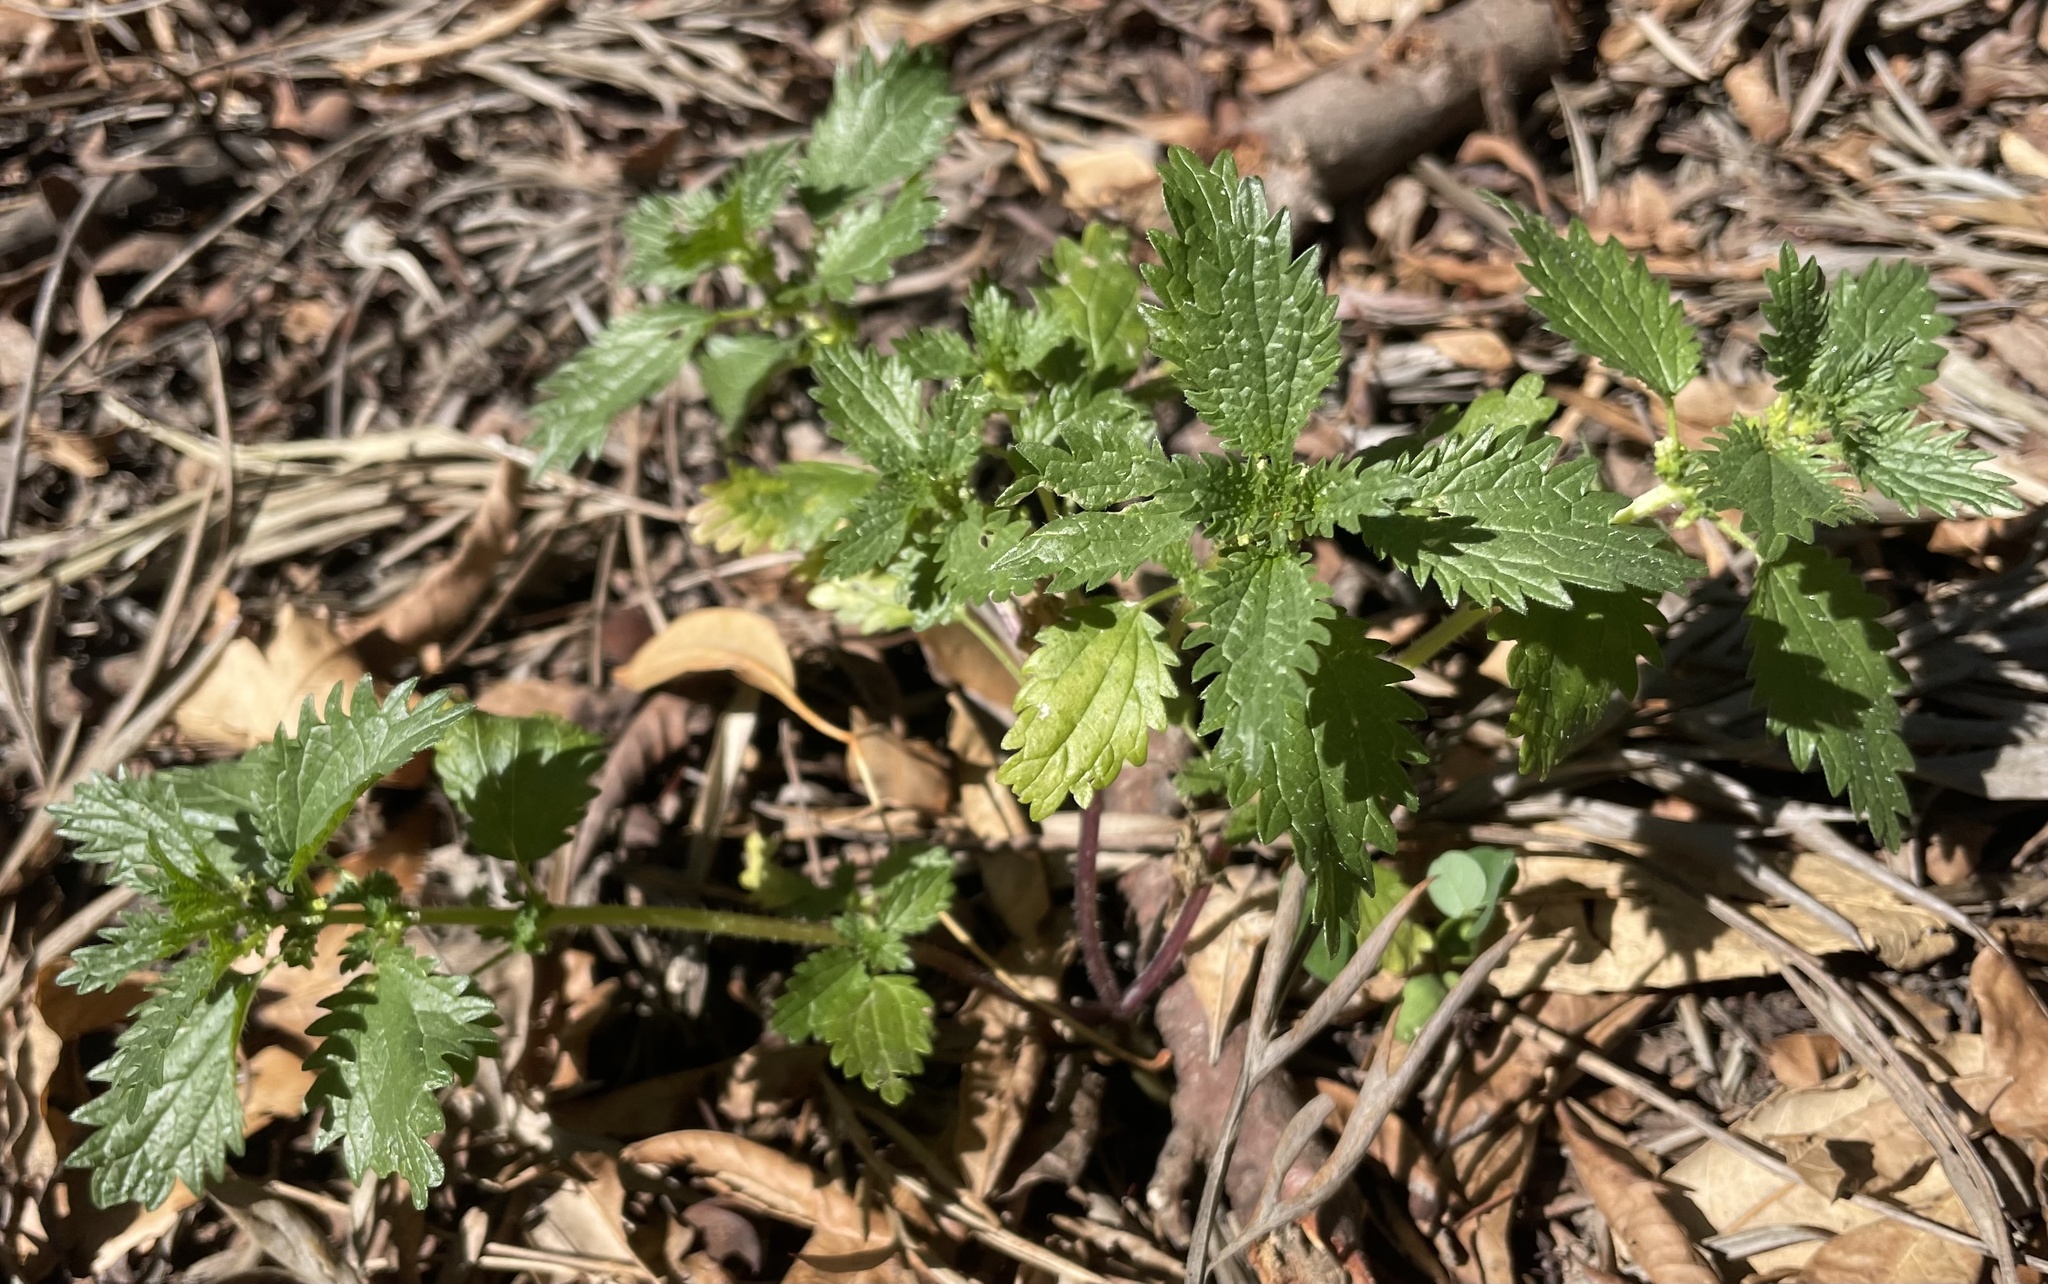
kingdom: Plantae
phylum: Tracheophyta
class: Magnoliopsida
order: Rosales
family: Urticaceae
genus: Urtica
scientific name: Urtica urens
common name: Dwarf nettle
